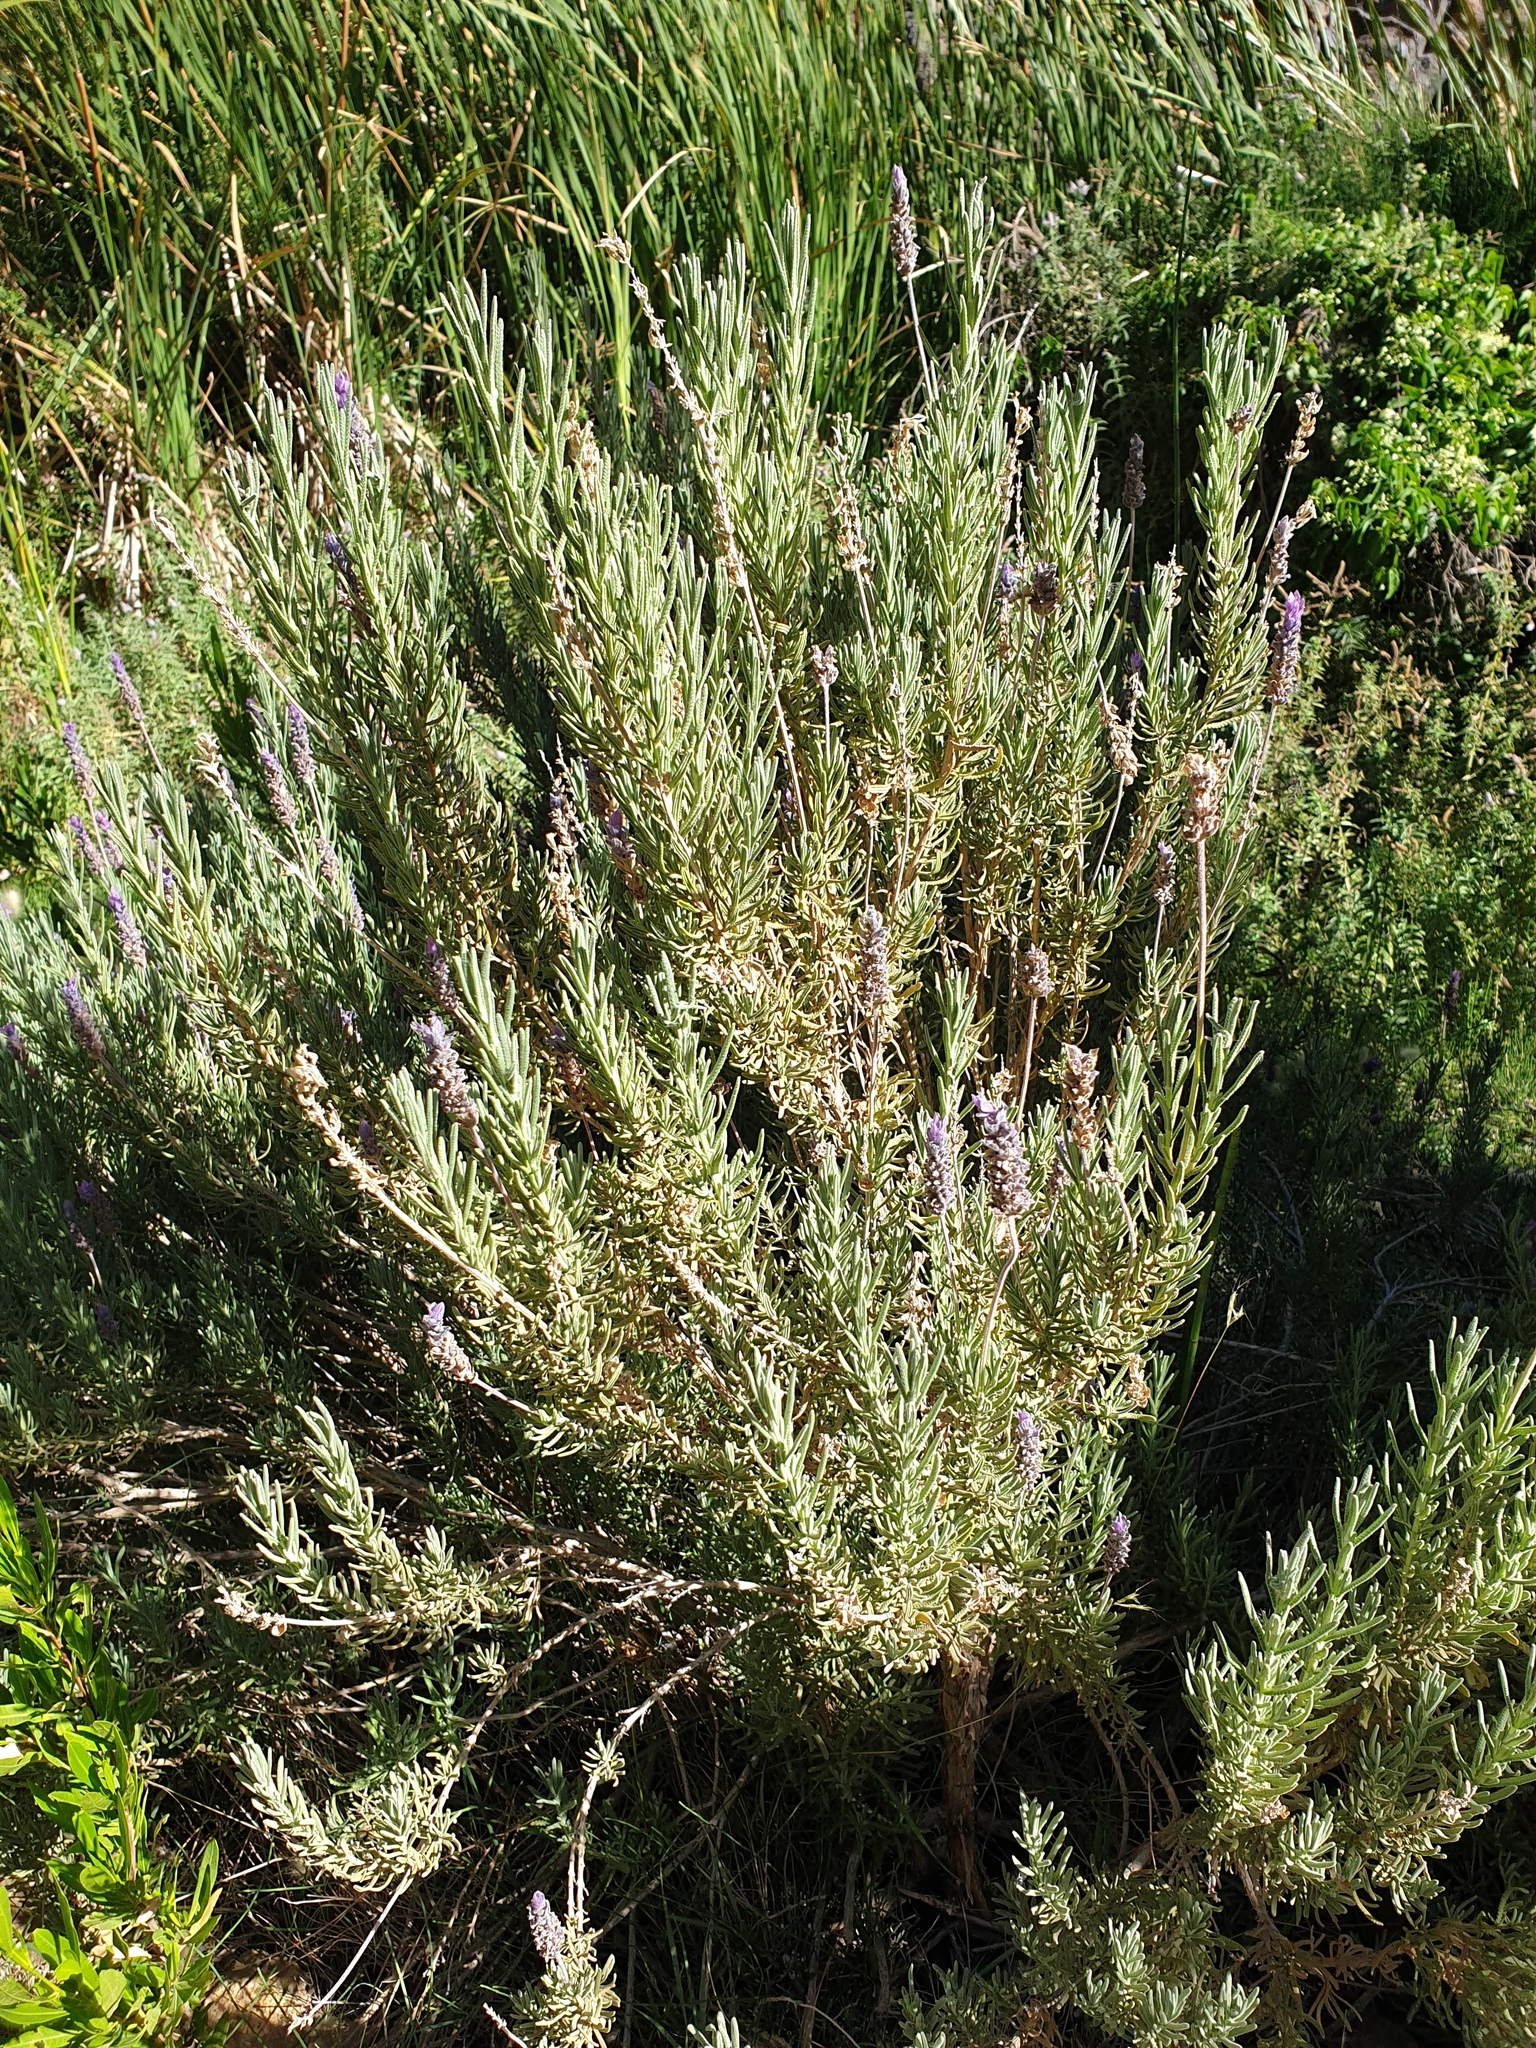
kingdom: Plantae
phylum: Tracheophyta
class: Magnoliopsida
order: Lamiales
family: Lamiaceae
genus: Lavandula
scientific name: Lavandula dentata
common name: French lavender
